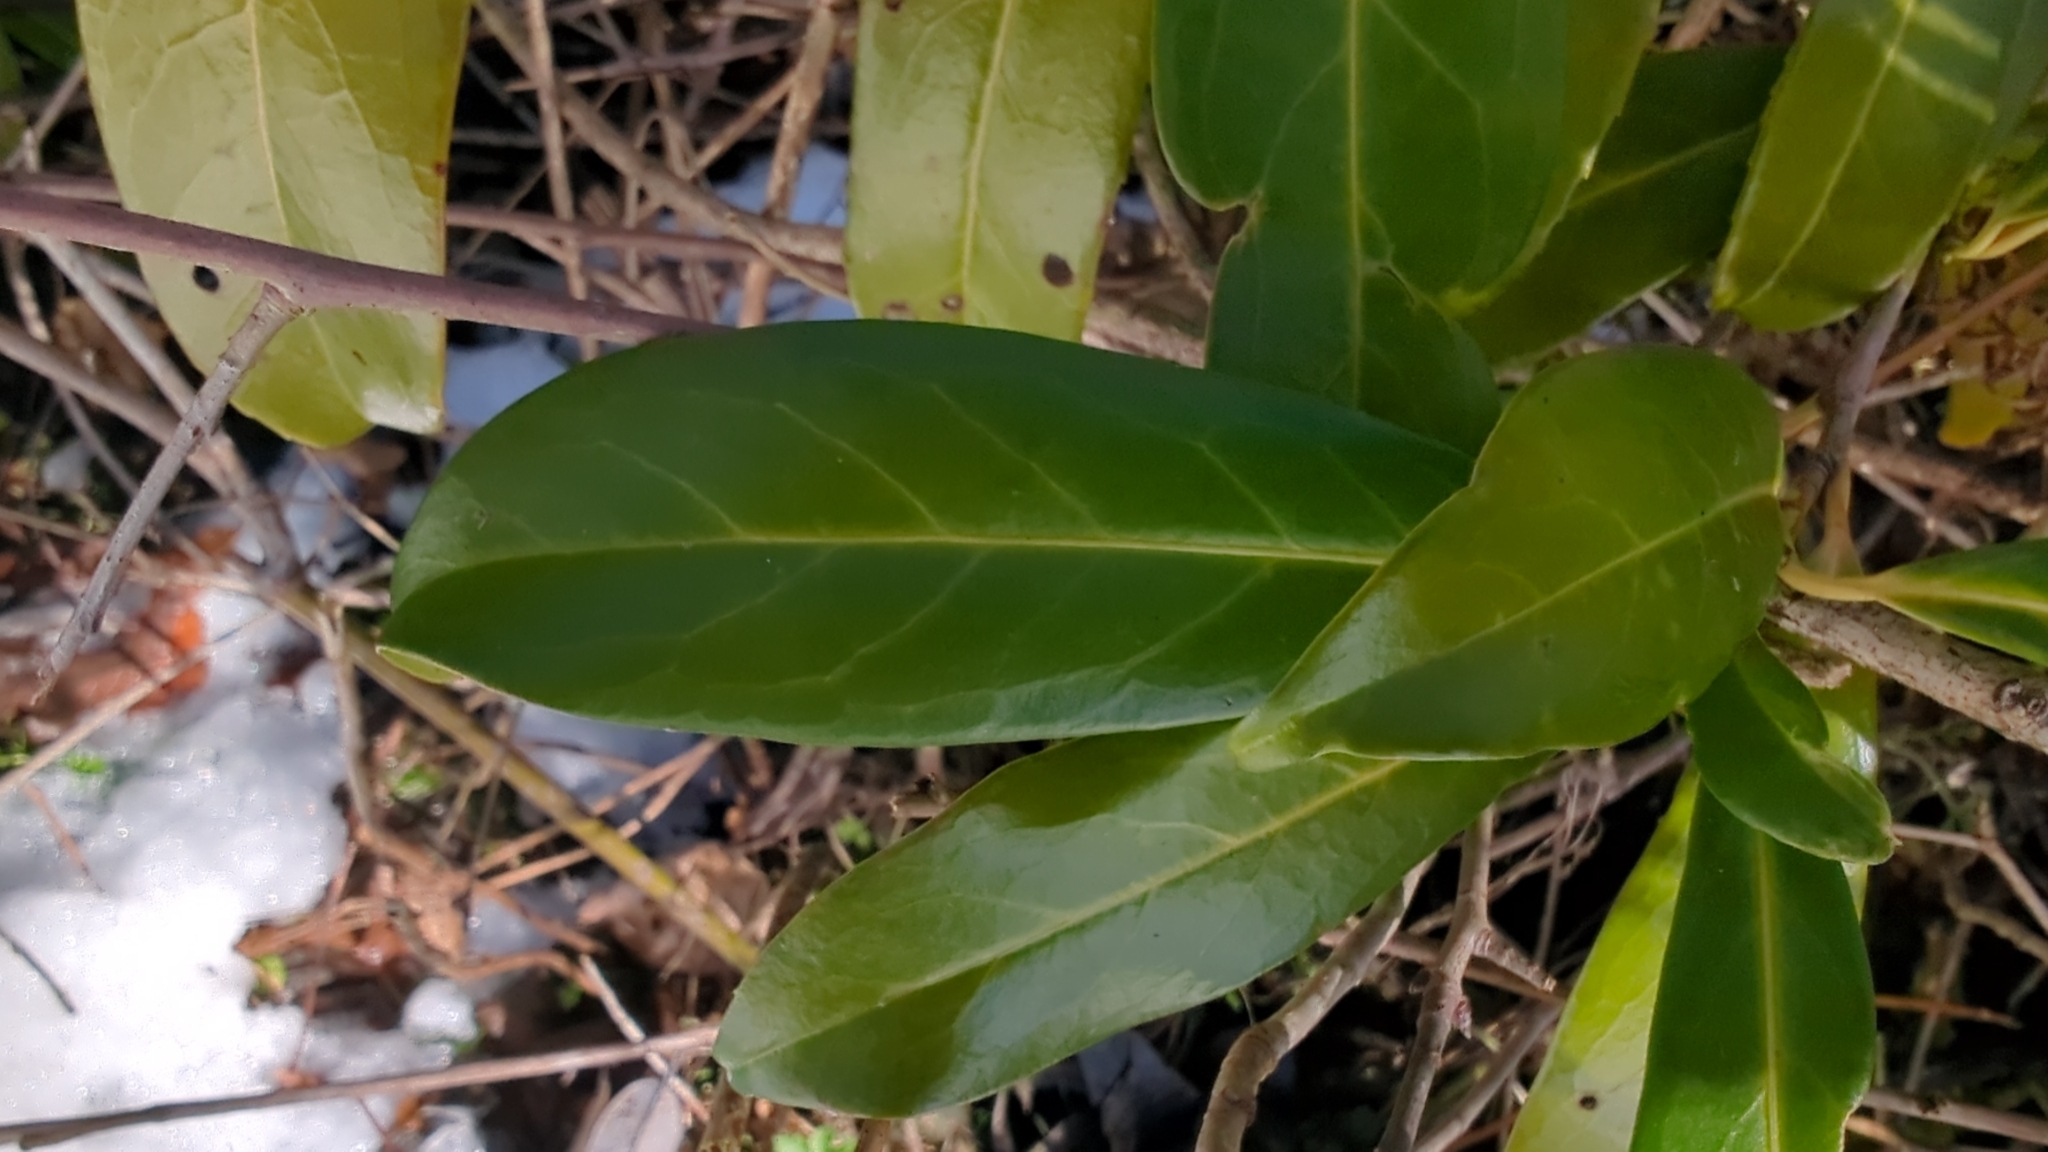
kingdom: Plantae
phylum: Tracheophyta
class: Magnoliopsida
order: Rosales
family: Rosaceae
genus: Prunus
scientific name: Prunus laurocerasus
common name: Cherry laurel
